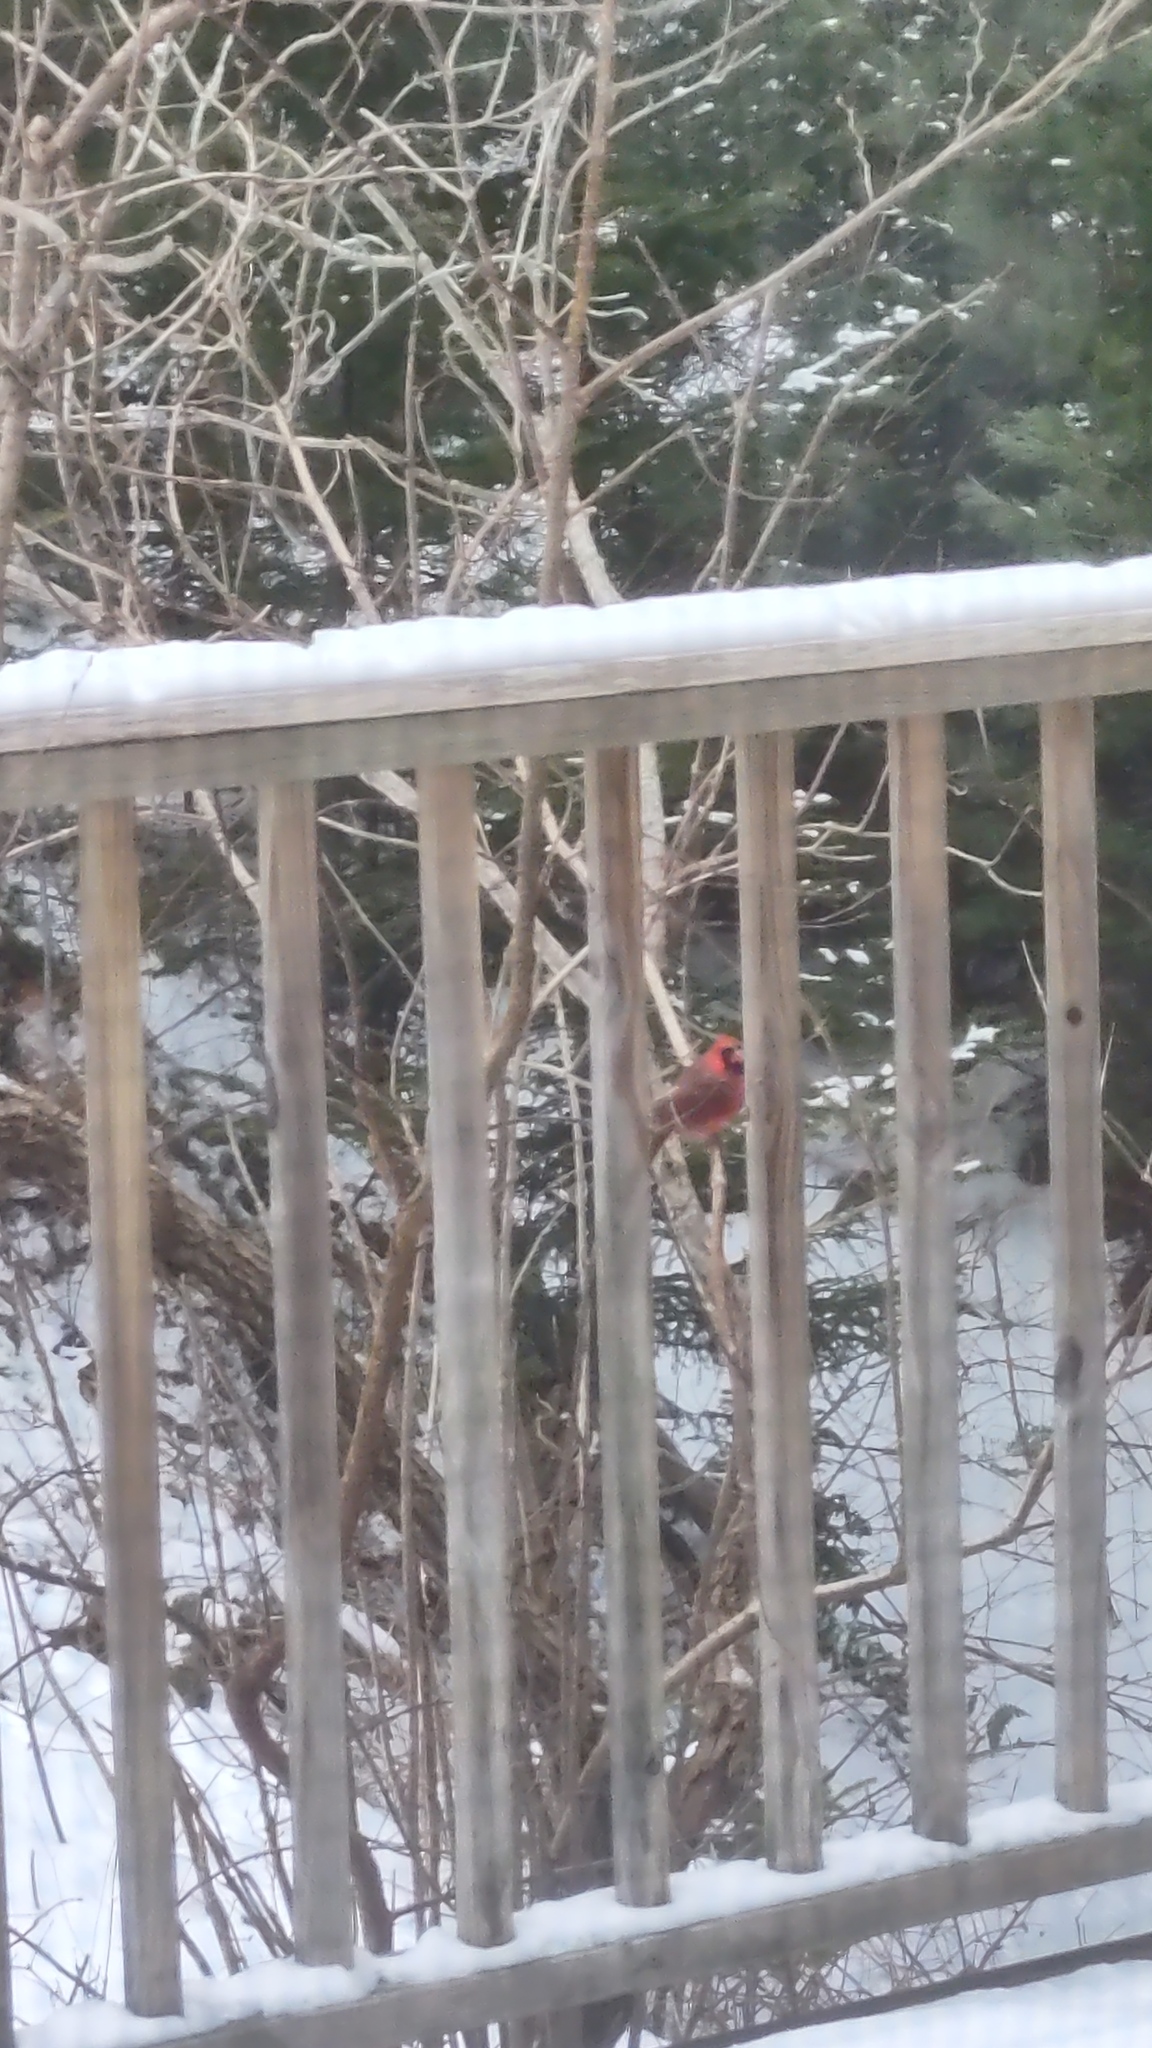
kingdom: Animalia
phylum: Chordata
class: Aves
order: Passeriformes
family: Cardinalidae
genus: Cardinalis
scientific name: Cardinalis cardinalis
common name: Northern cardinal
